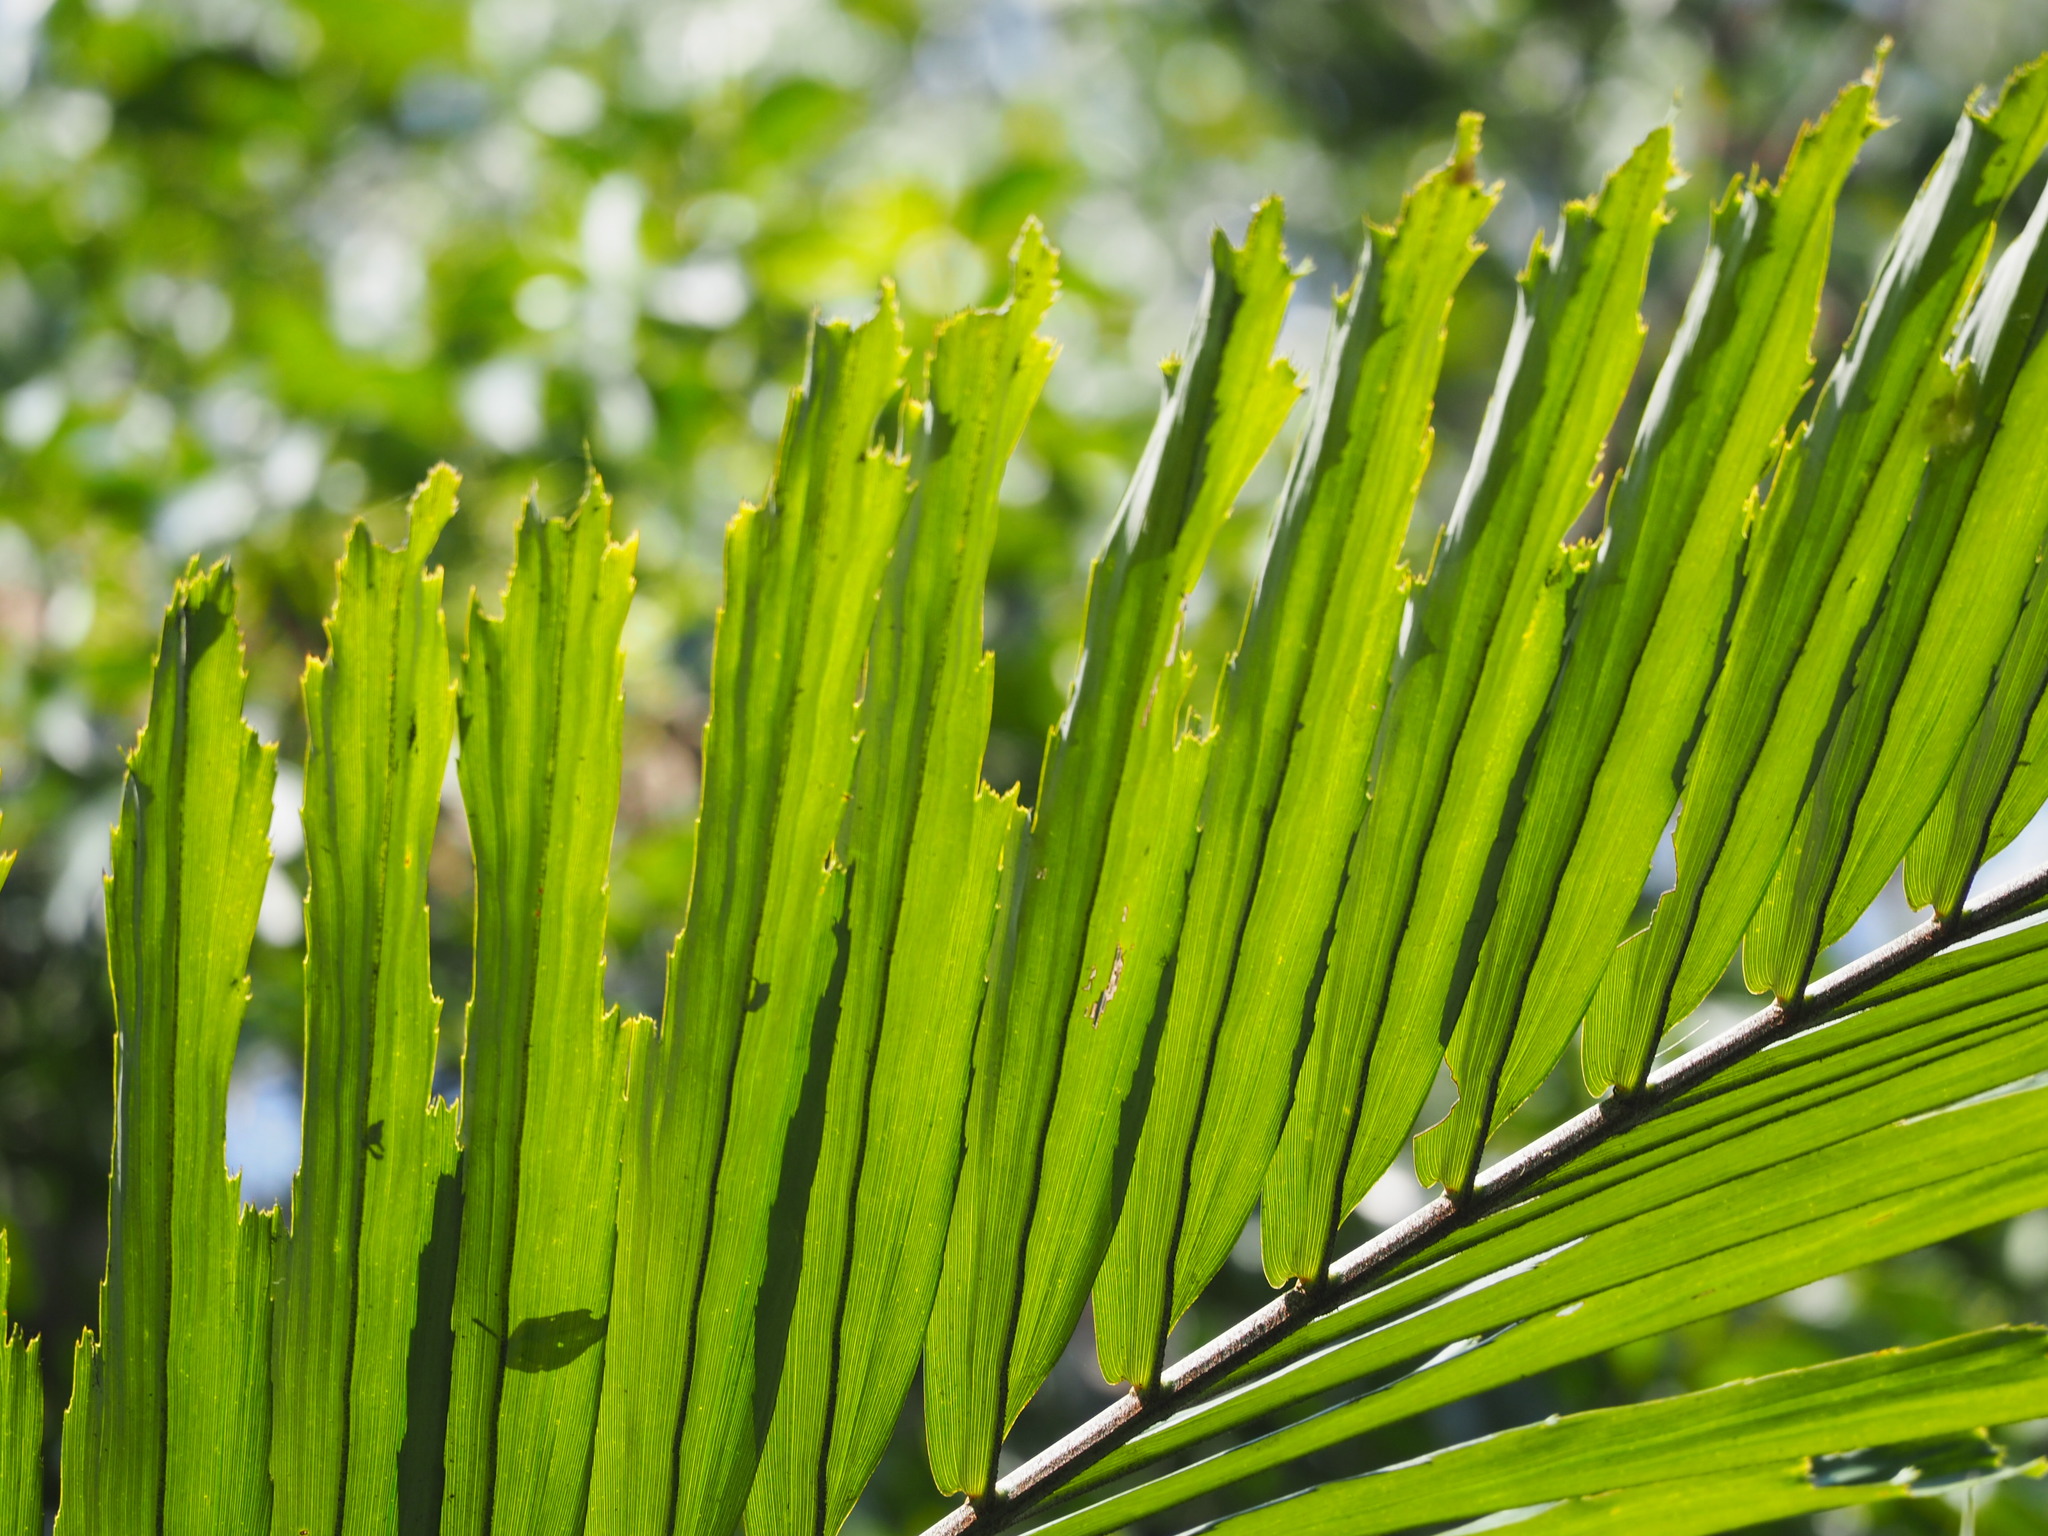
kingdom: Plantae
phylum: Tracheophyta
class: Liliopsida
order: Arecales
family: Arecaceae
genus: Arenga
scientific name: Arenga engleri
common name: Formosan sugar palm
